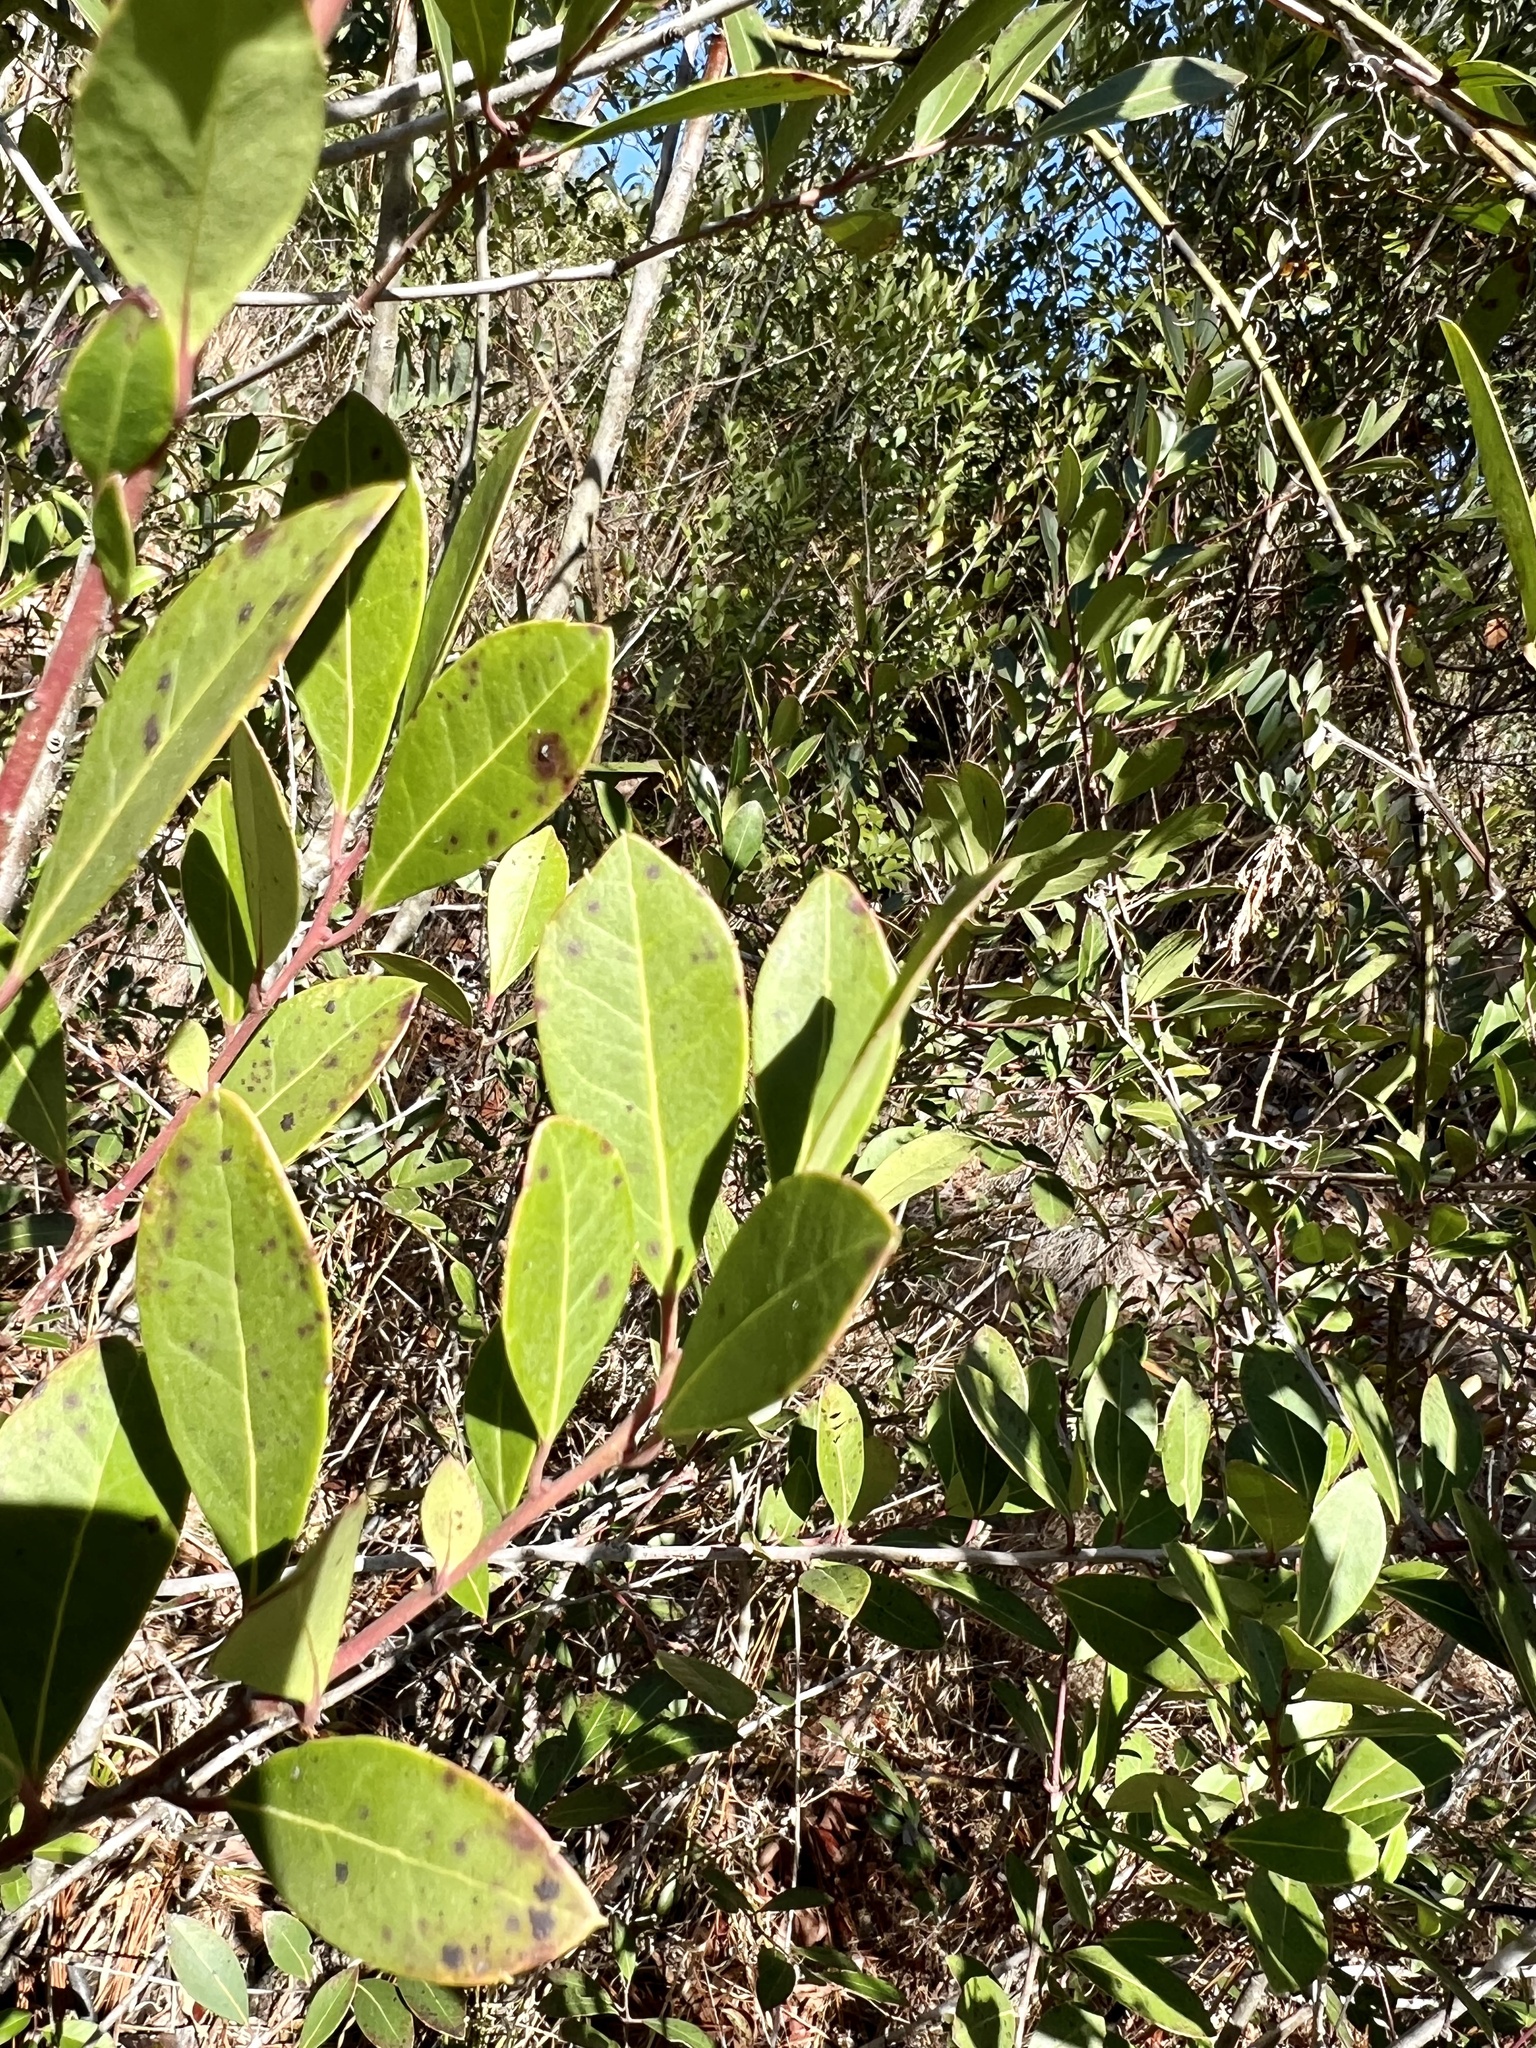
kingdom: Plantae
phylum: Tracheophyta
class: Magnoliopsida
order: Aquifoliales
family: Aquifoliaceae
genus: Ilex
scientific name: Ilex coriacea
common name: Sweet gallberry
